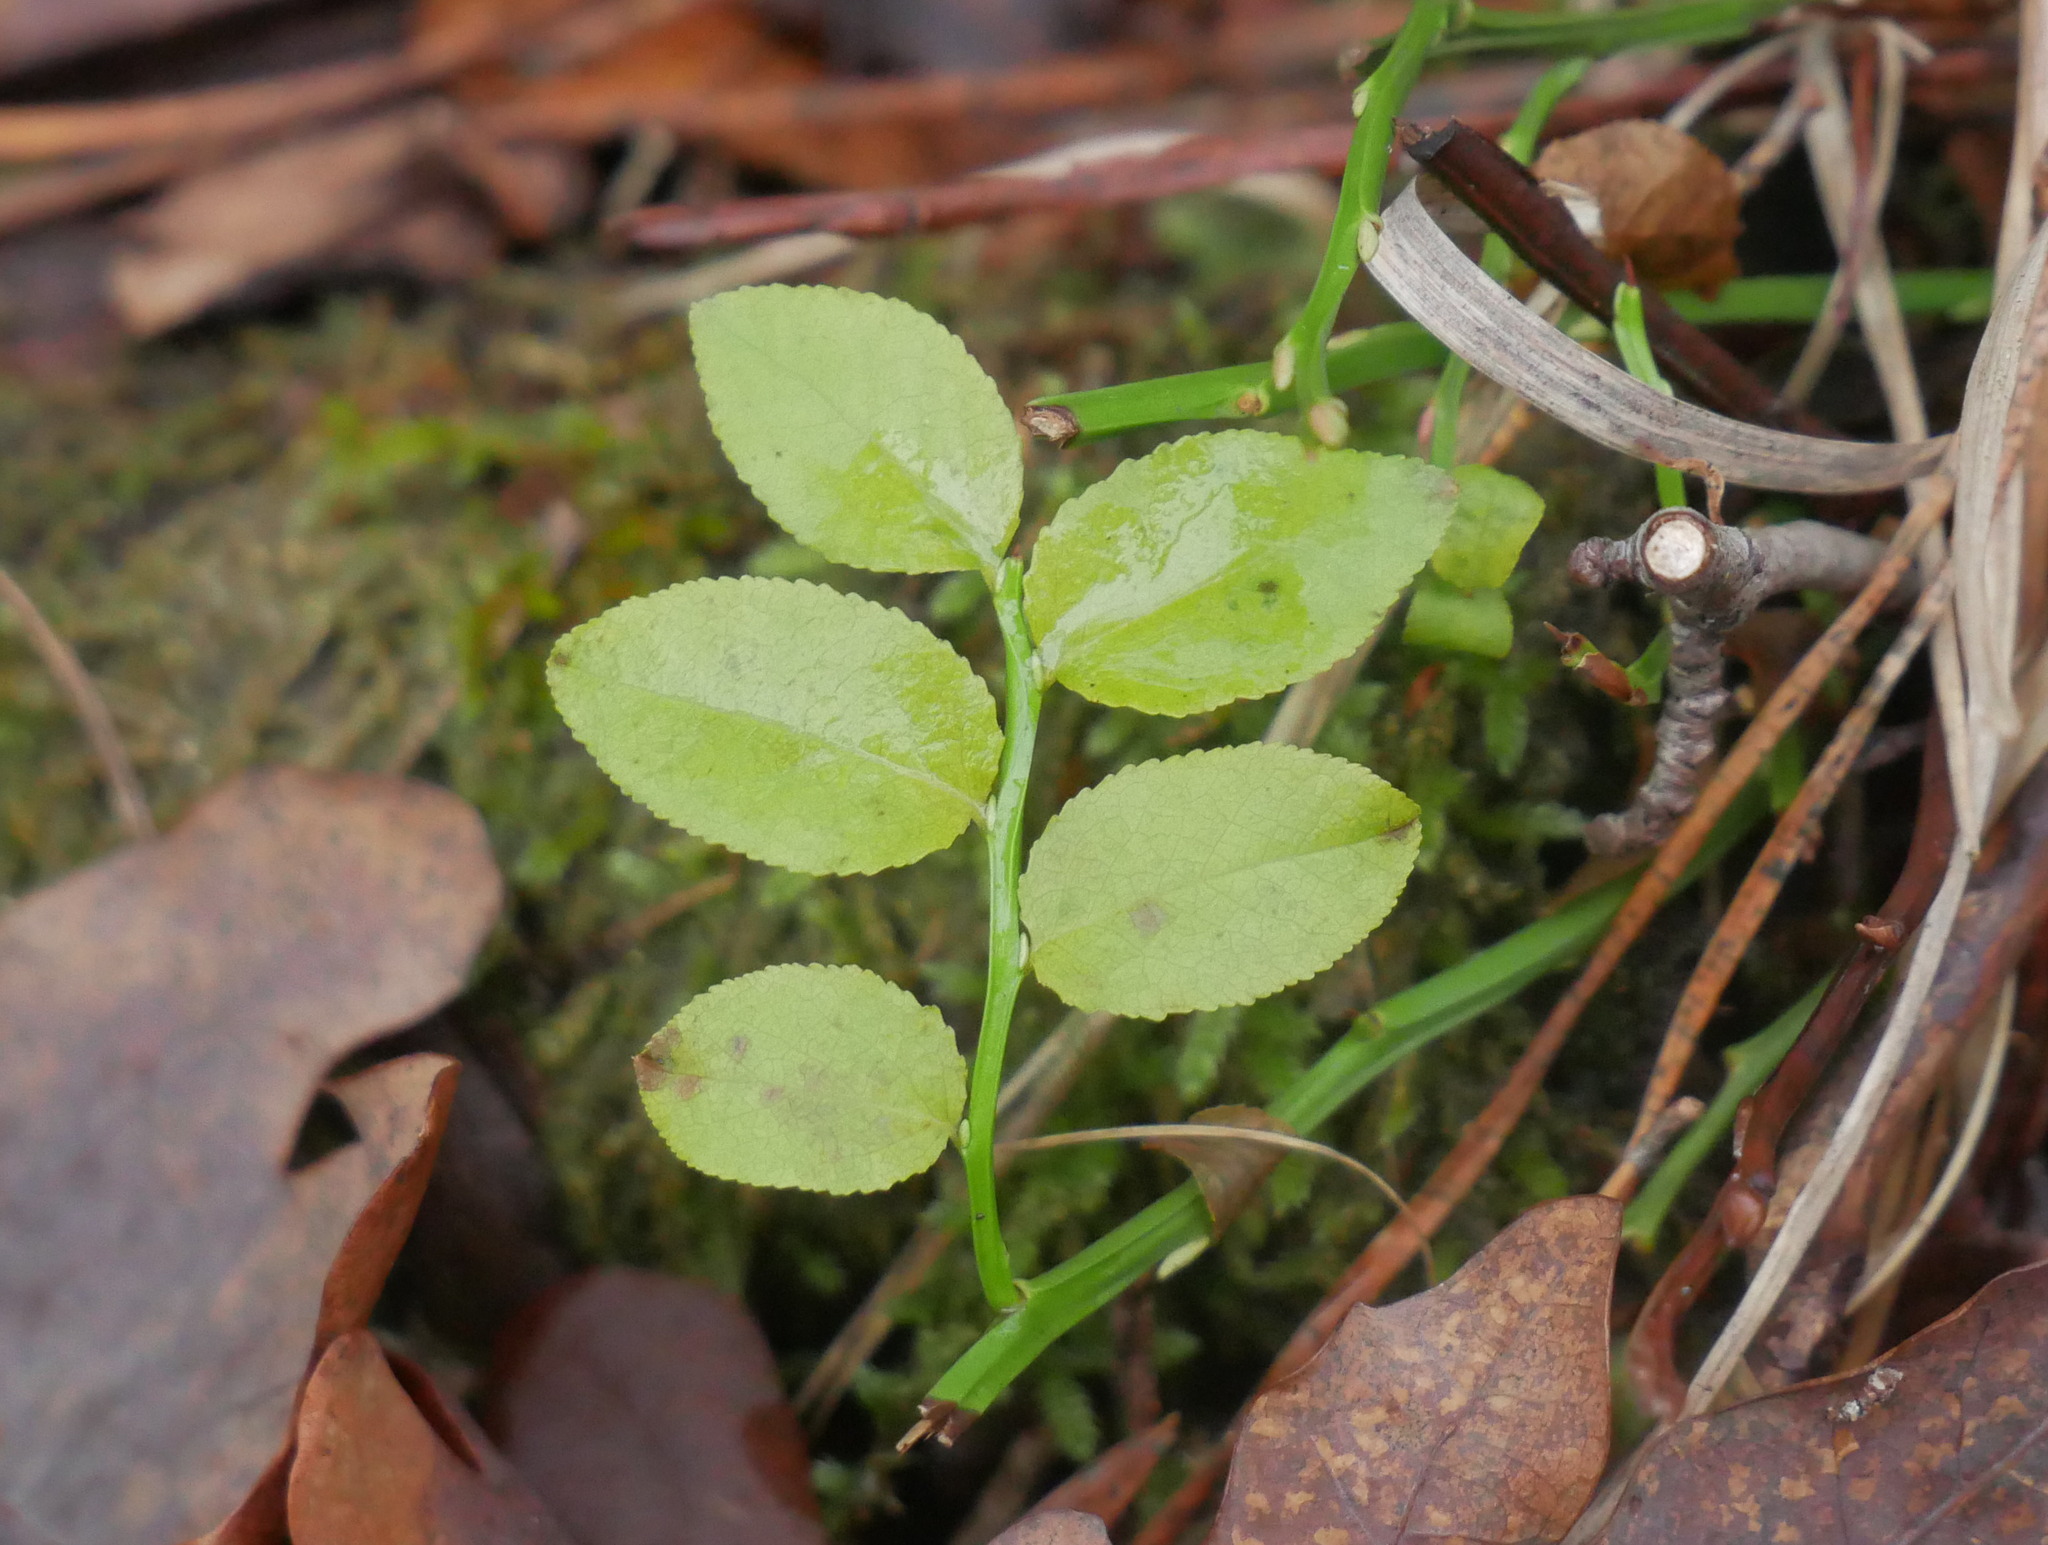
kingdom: Plantae
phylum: Tracheophyta
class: Magnoliopsida
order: Ericales
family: Ericaceae
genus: Vaccinium
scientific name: Vaccinium myrtillus
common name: Bilberry
